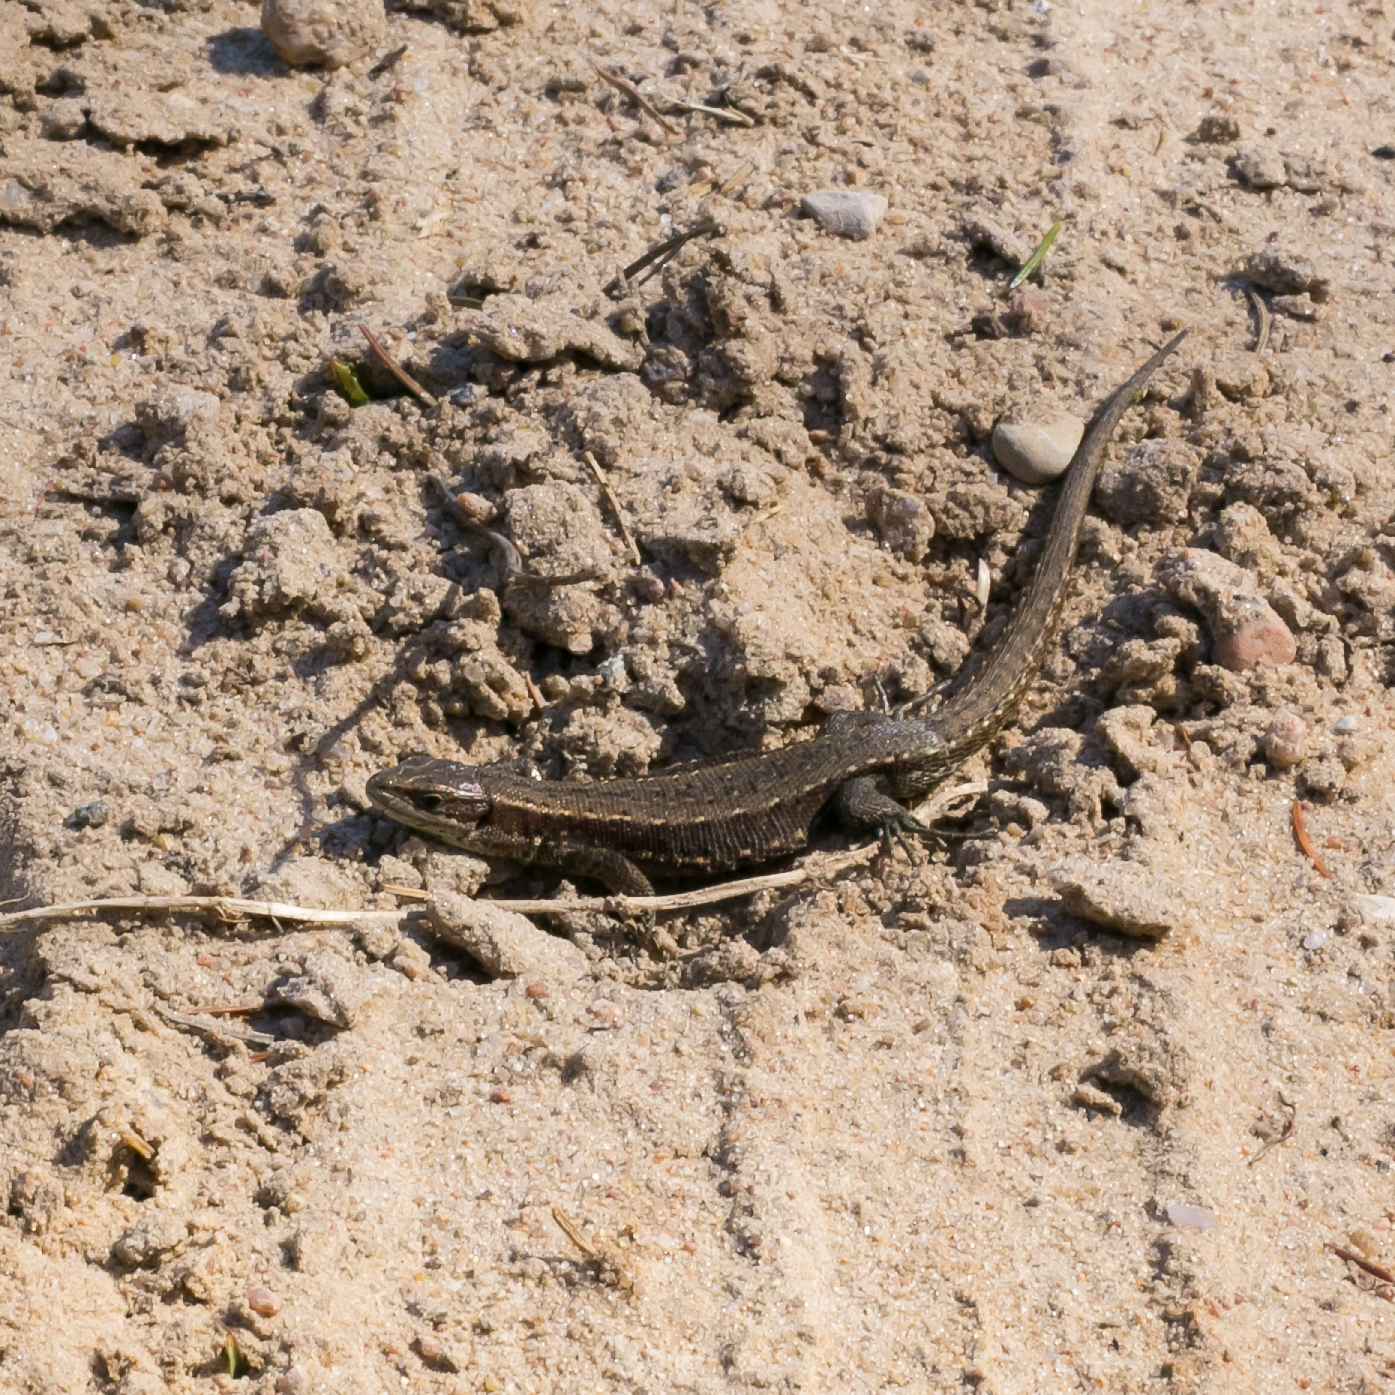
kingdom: Animalia
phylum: Chordata
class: Squamata
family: Lacertidae
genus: Zootoca
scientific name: Zootoca vivipara
